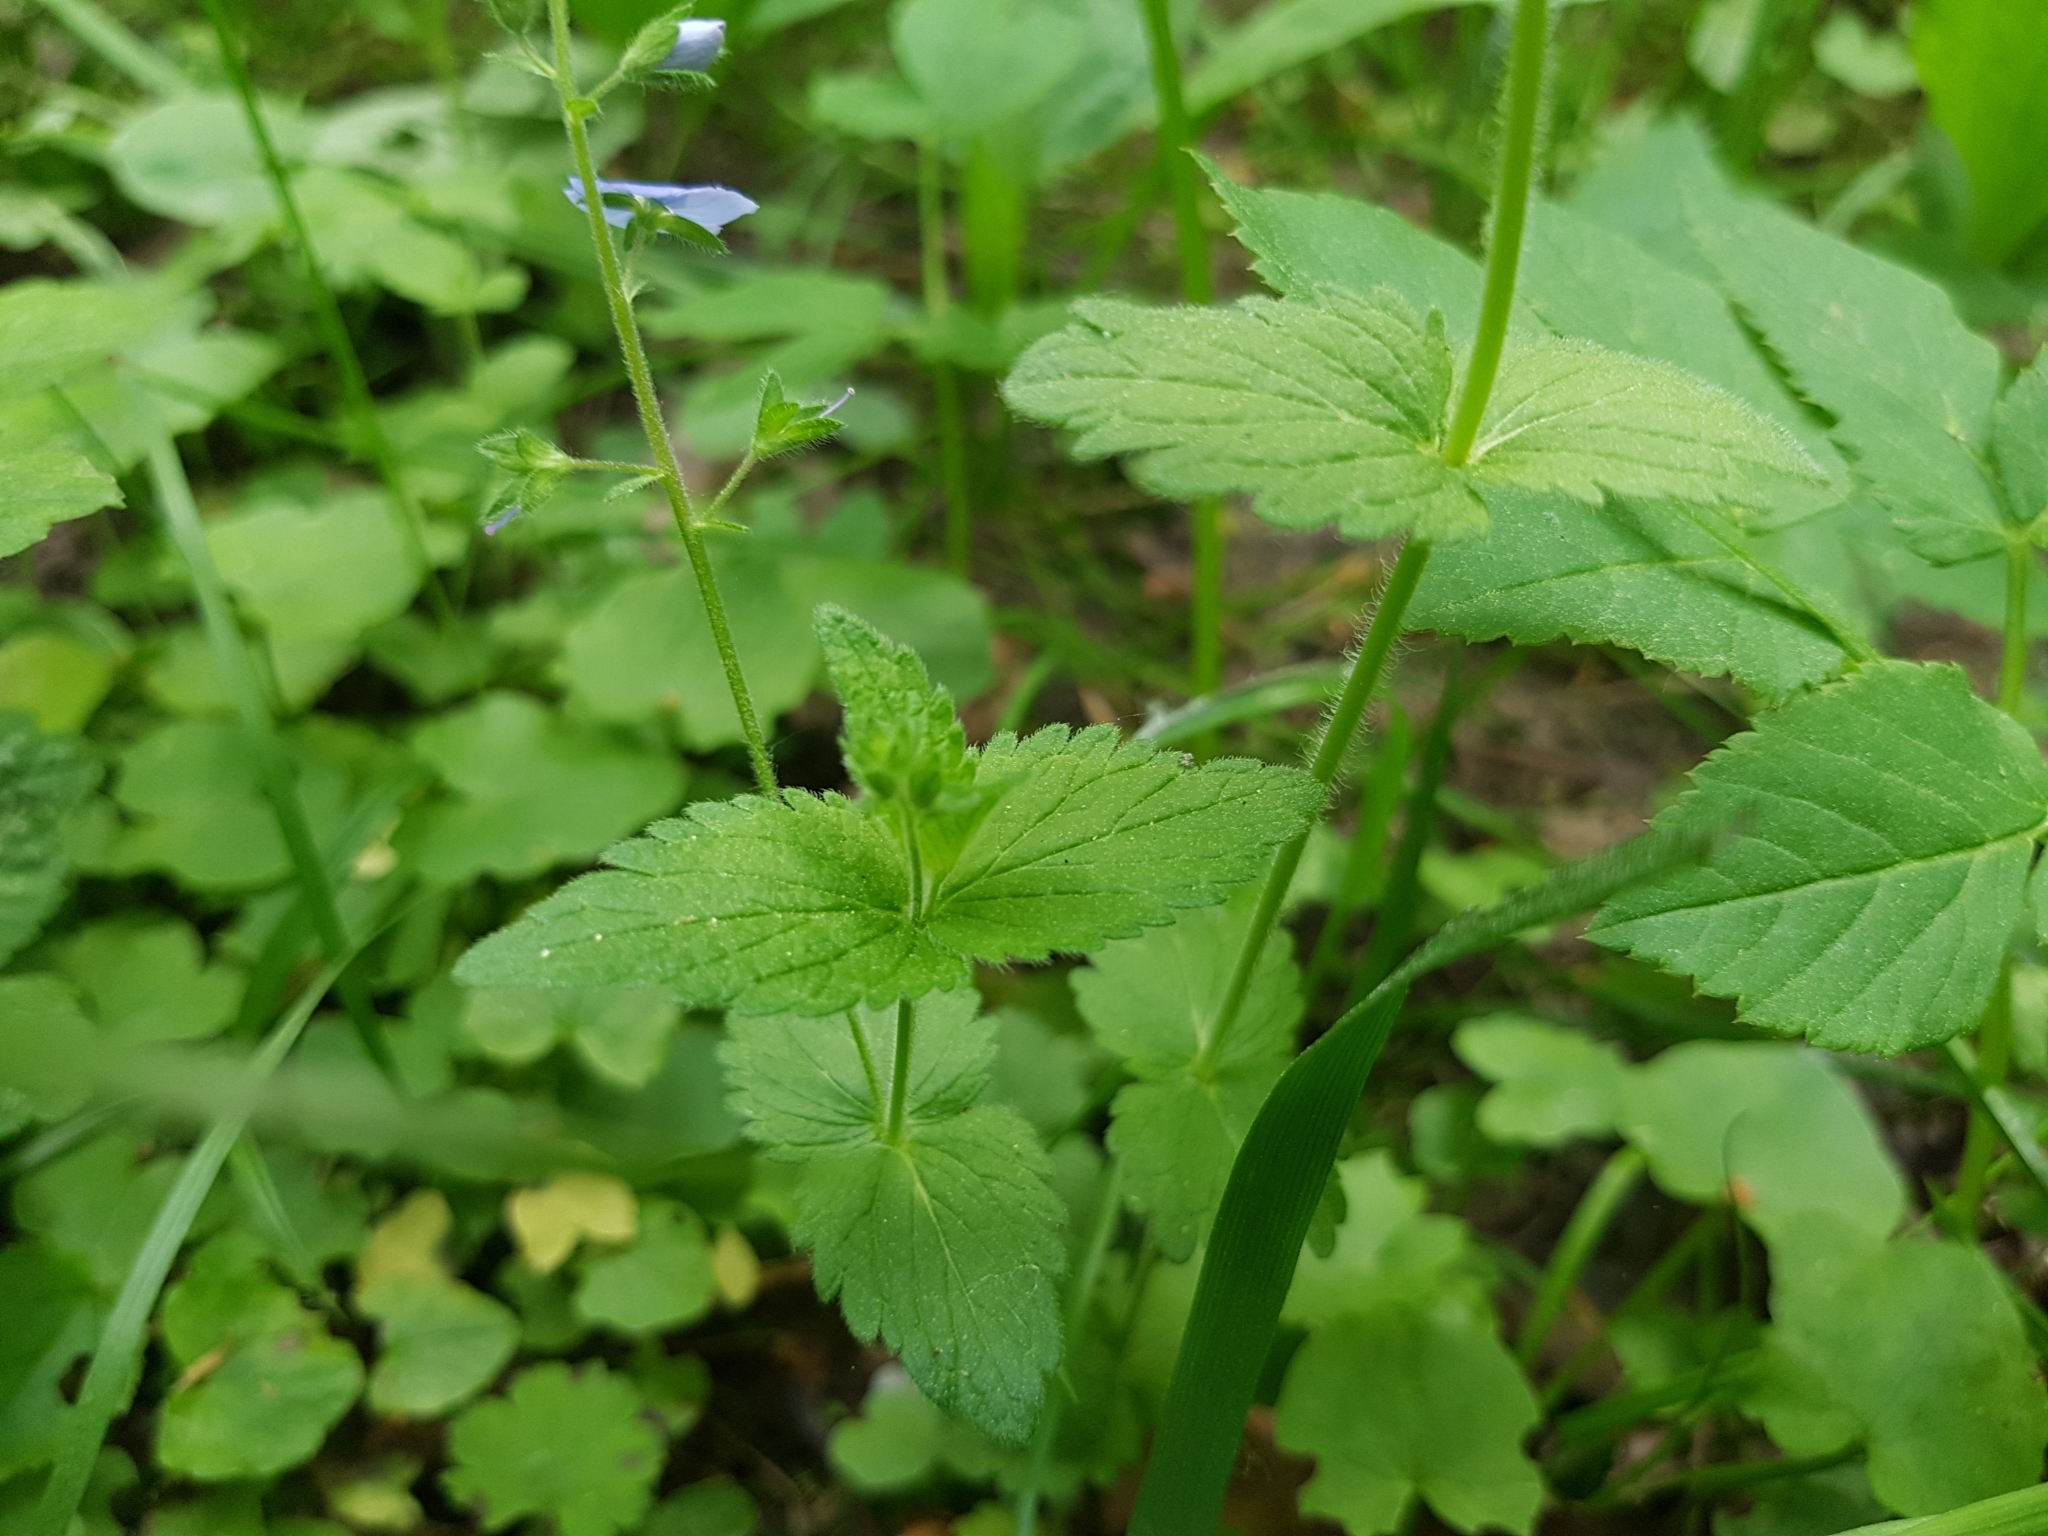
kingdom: Plantae
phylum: Tracheophyta
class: Magnoliopsida
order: Lamiales
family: Plantaginaceae
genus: Veronica
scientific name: Veronica chamaedrys
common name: Germander speedwell
